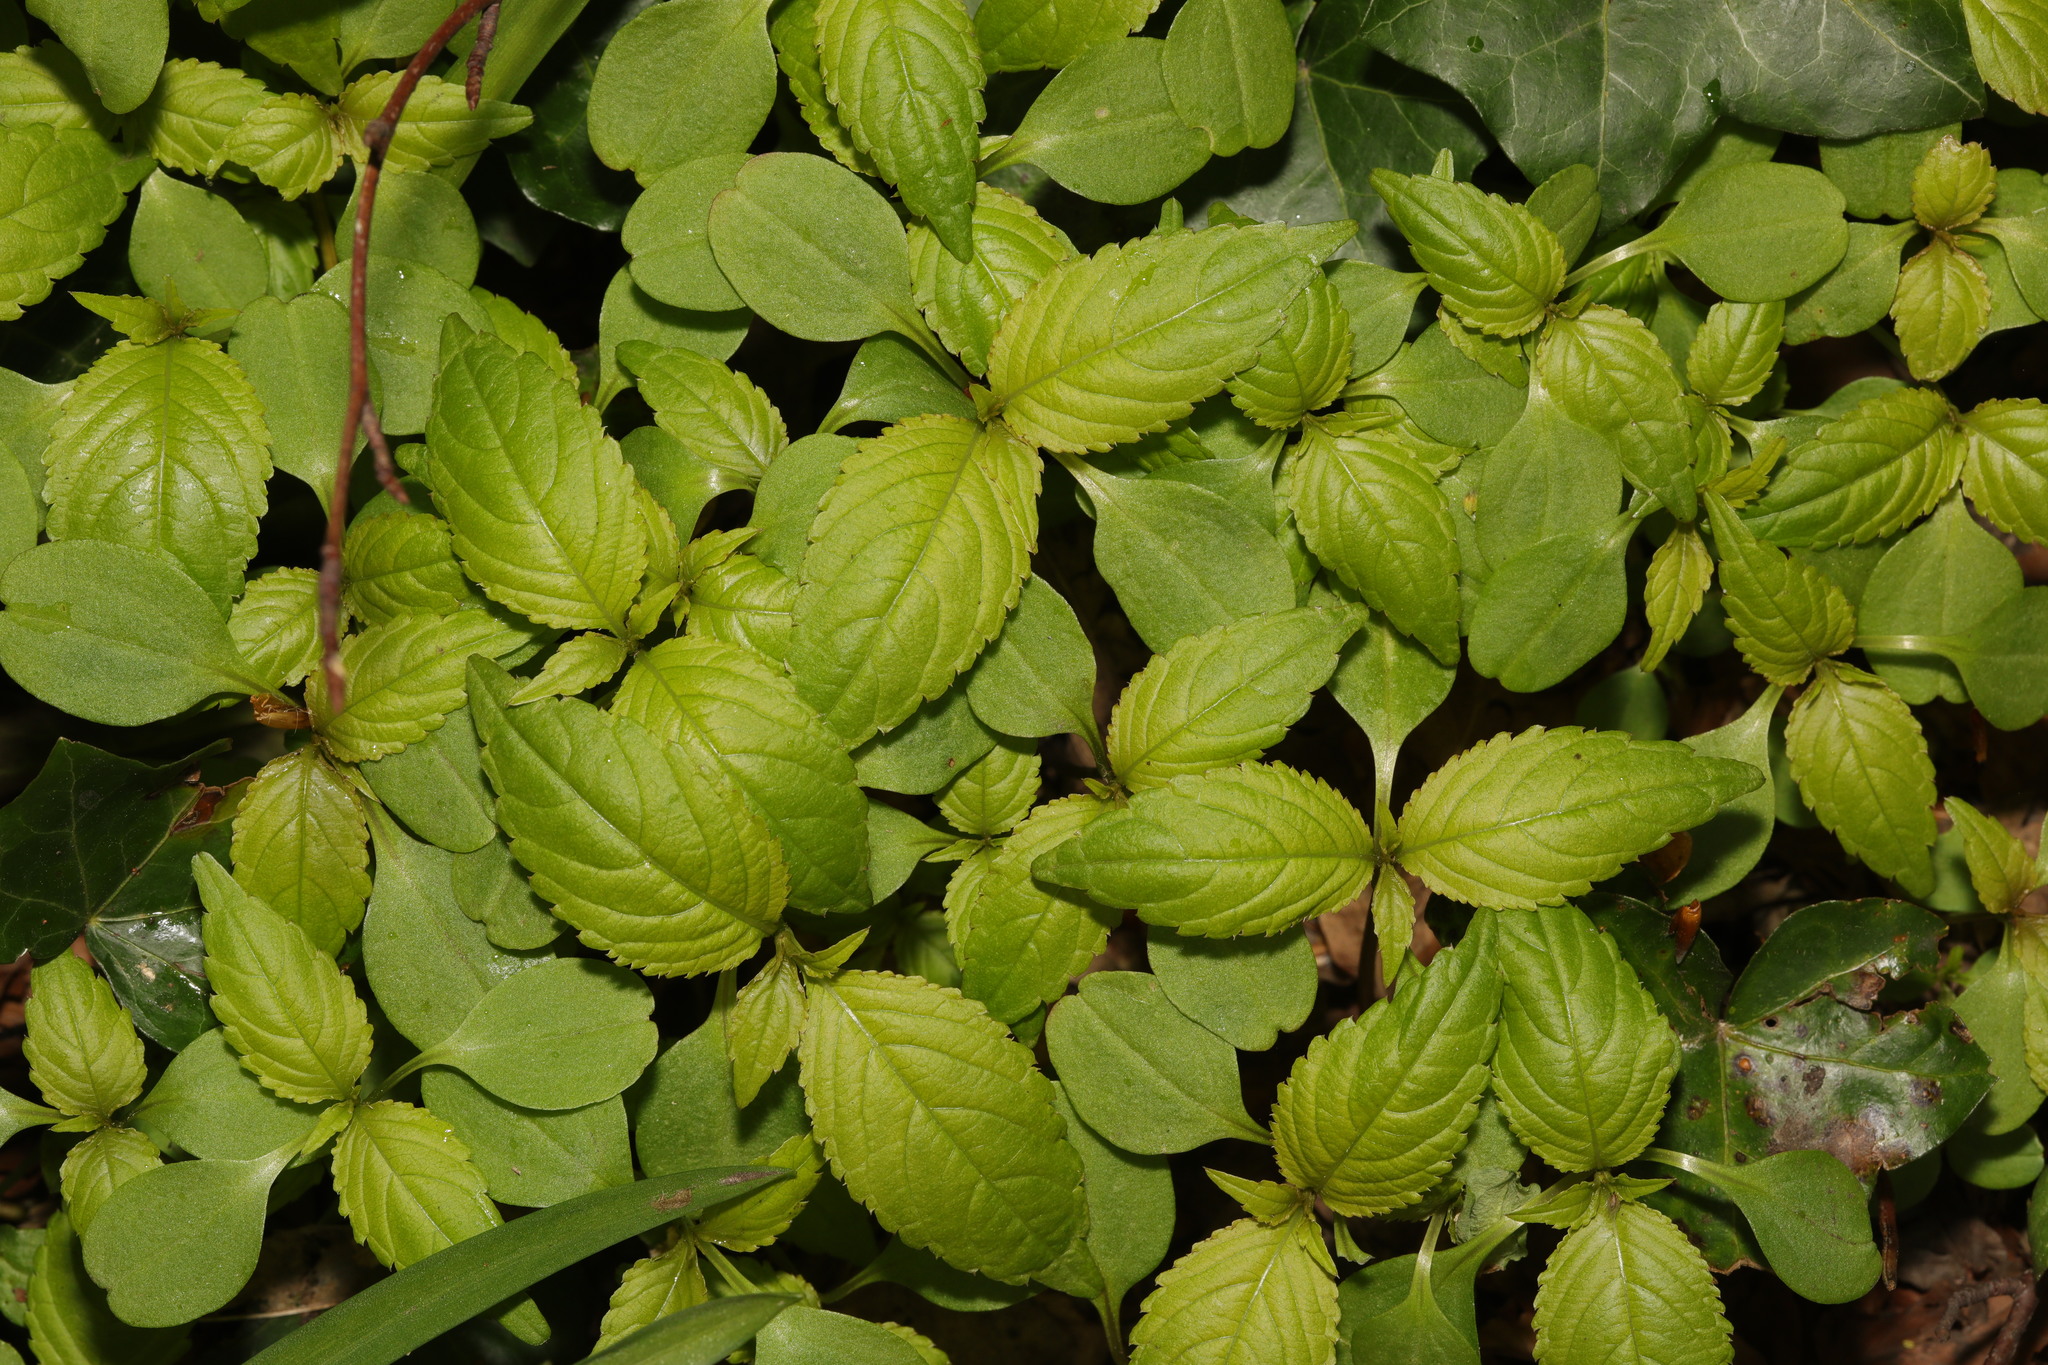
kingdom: Plantae
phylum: Tracheophyta
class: Magnoliopsida
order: Ericales
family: Balsaminaceae
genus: Impatiens
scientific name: Impatiens parviflora
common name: Small balsam
